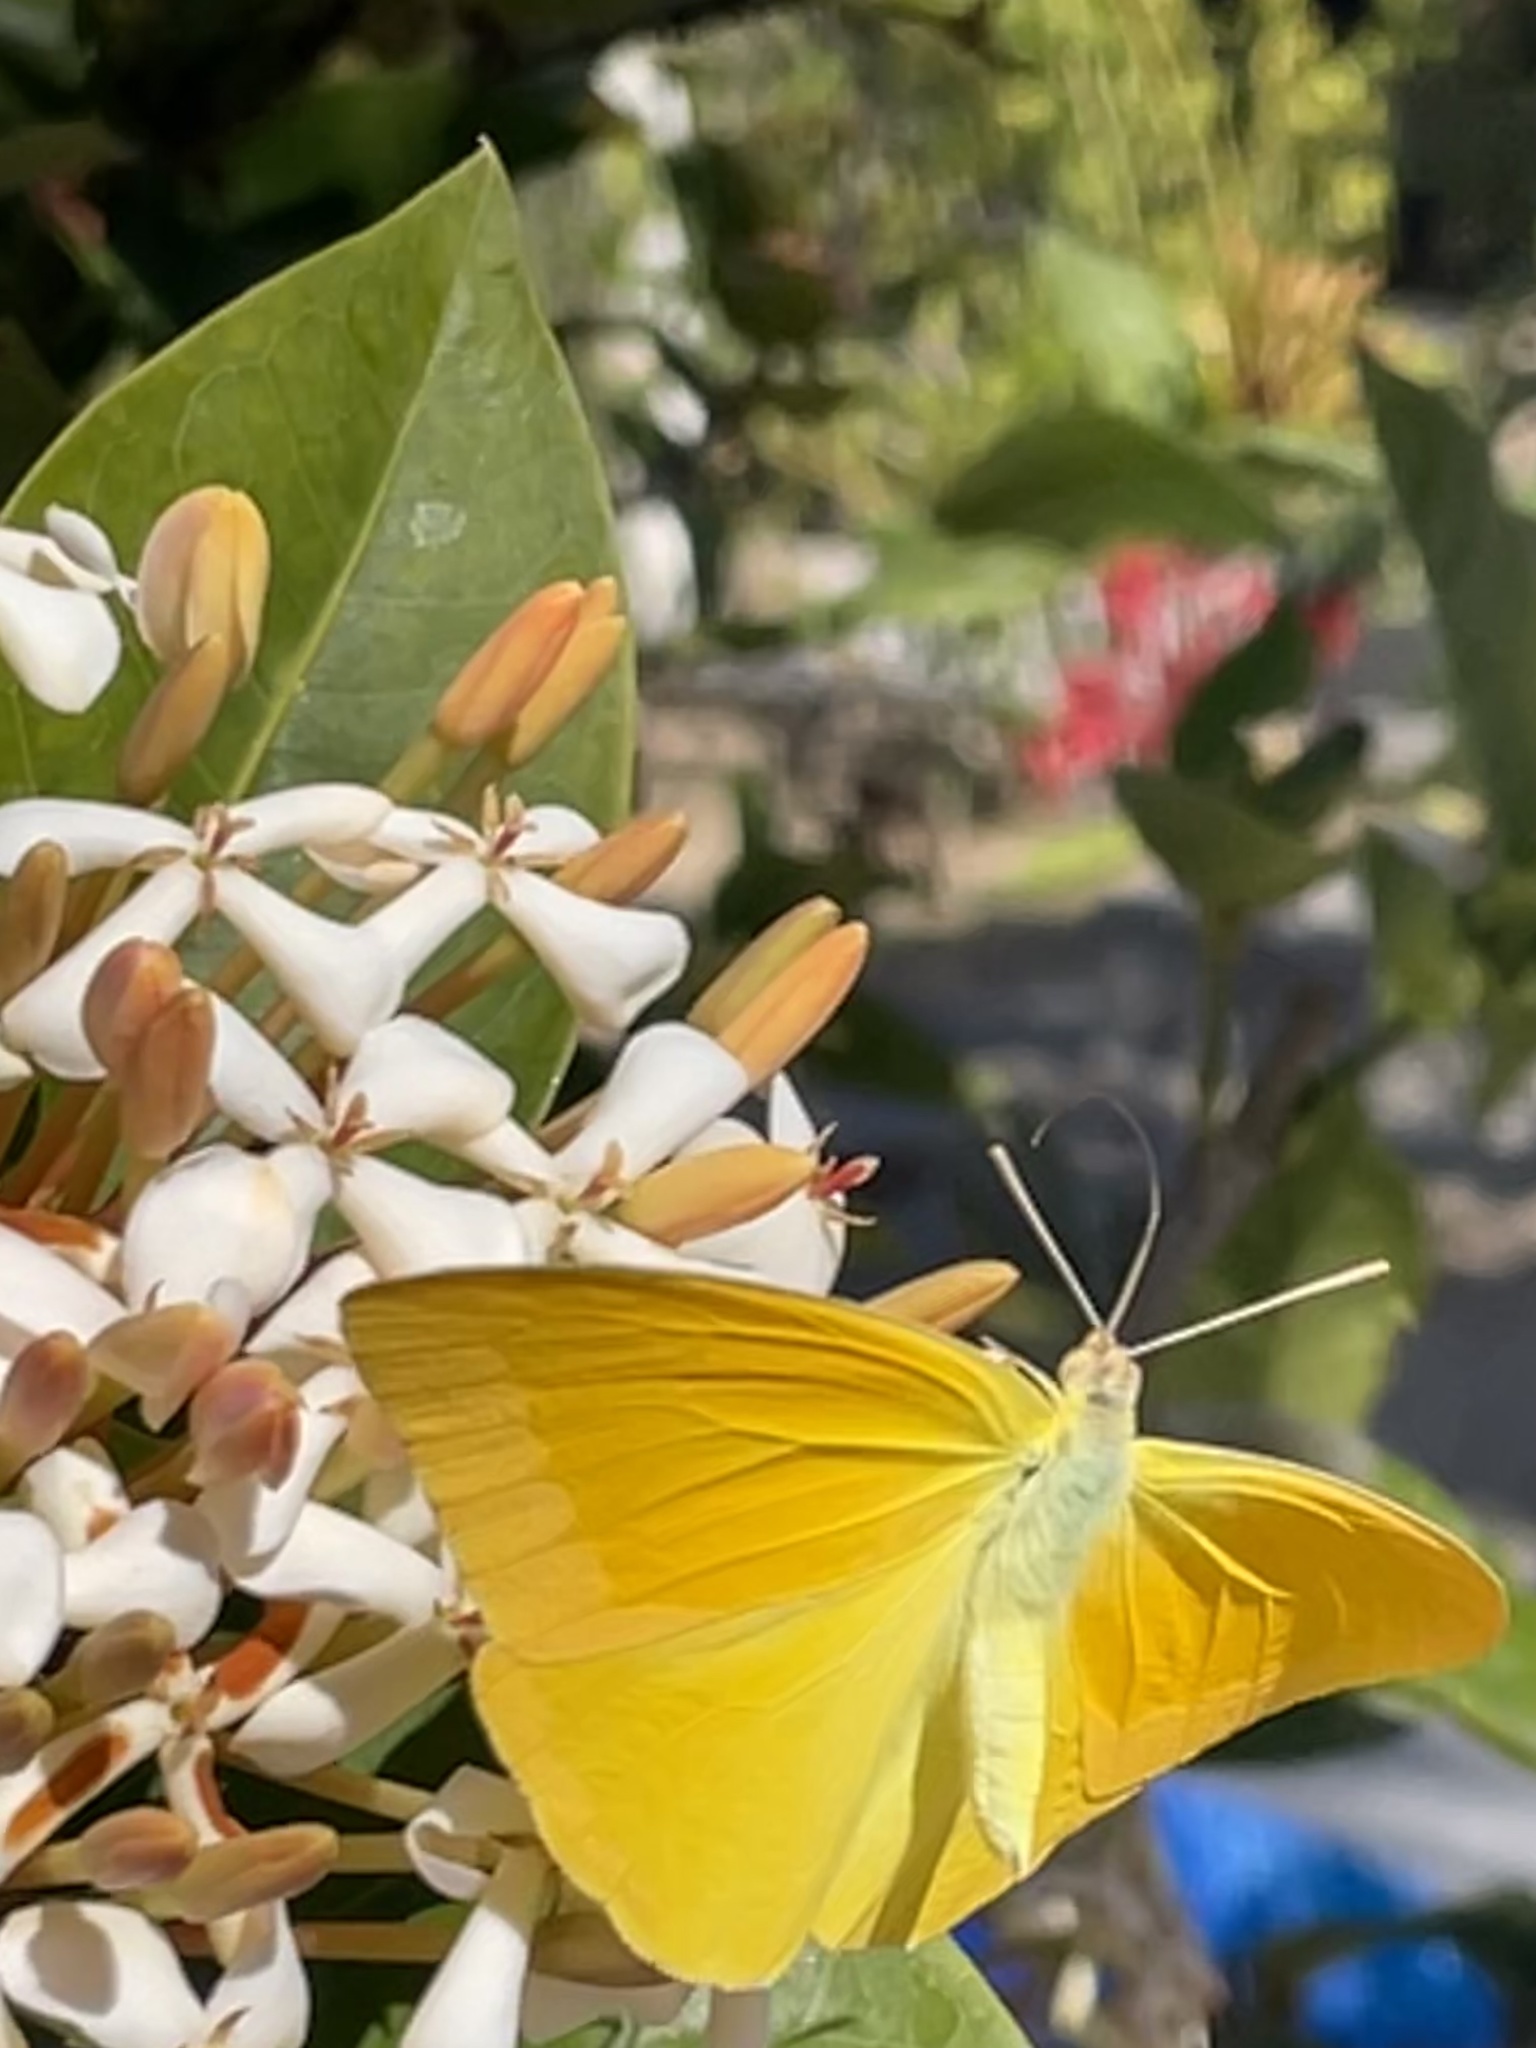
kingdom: Animalia
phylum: Arthropoda
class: Insecta
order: Lepidoptera
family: Pieridae
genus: Phoebis
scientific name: Phoebis agarithe
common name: Large orange sulphur
